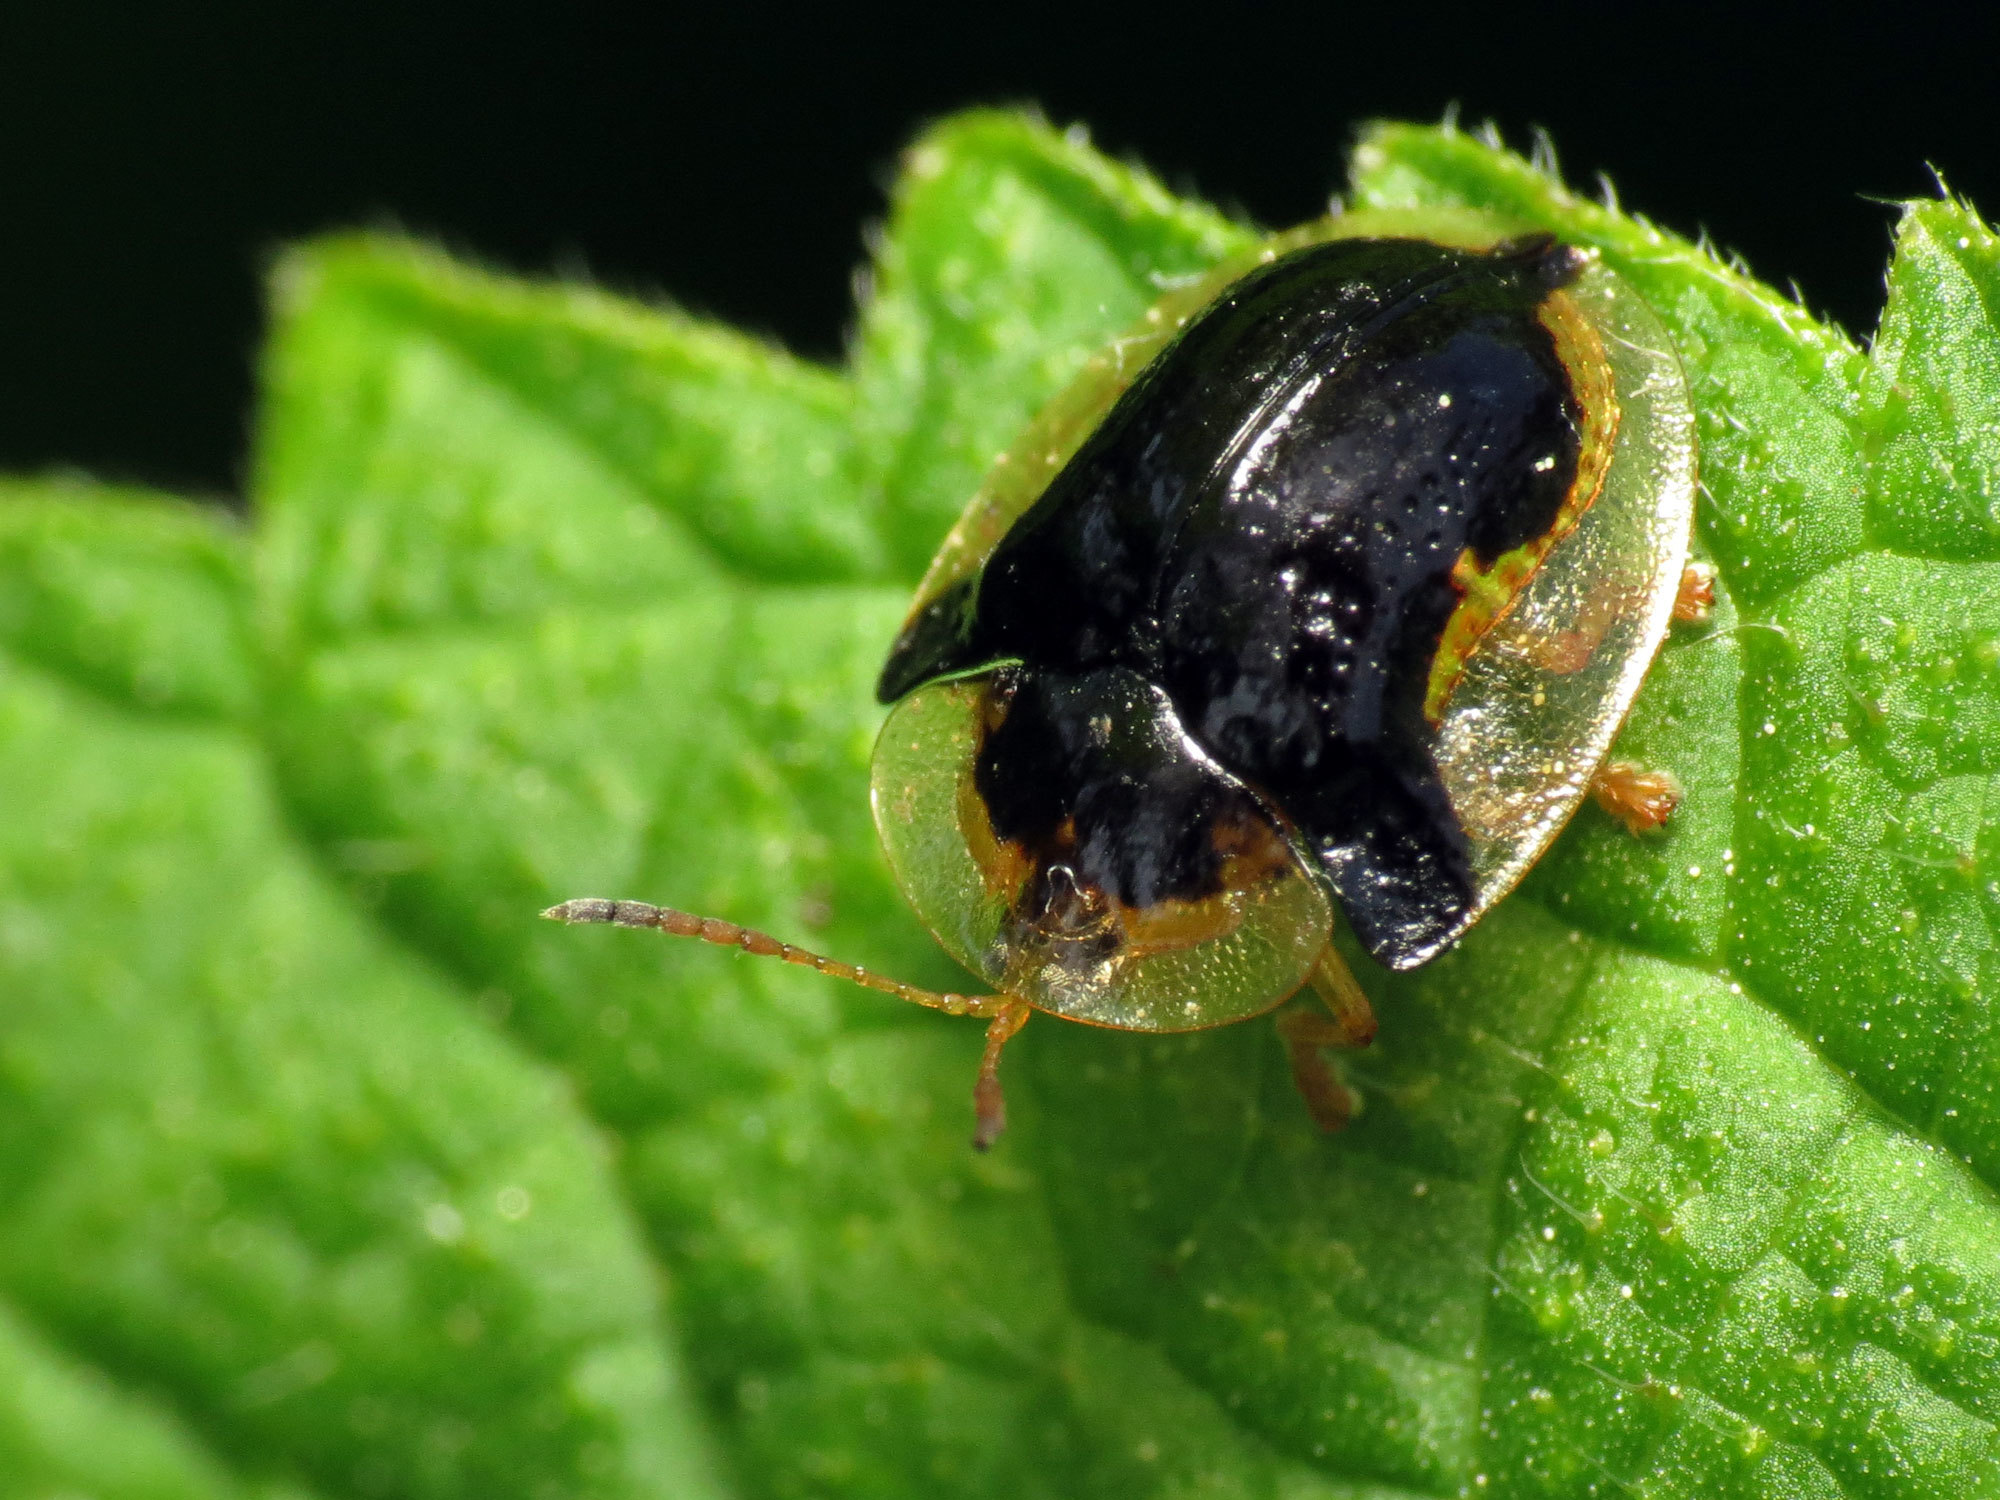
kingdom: Animalia
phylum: Arthropoda
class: Insecta
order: Coleoptera
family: Chrysomelidae
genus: Deloyala
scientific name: Deloyala guttata
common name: Mottled tortoise beetle
